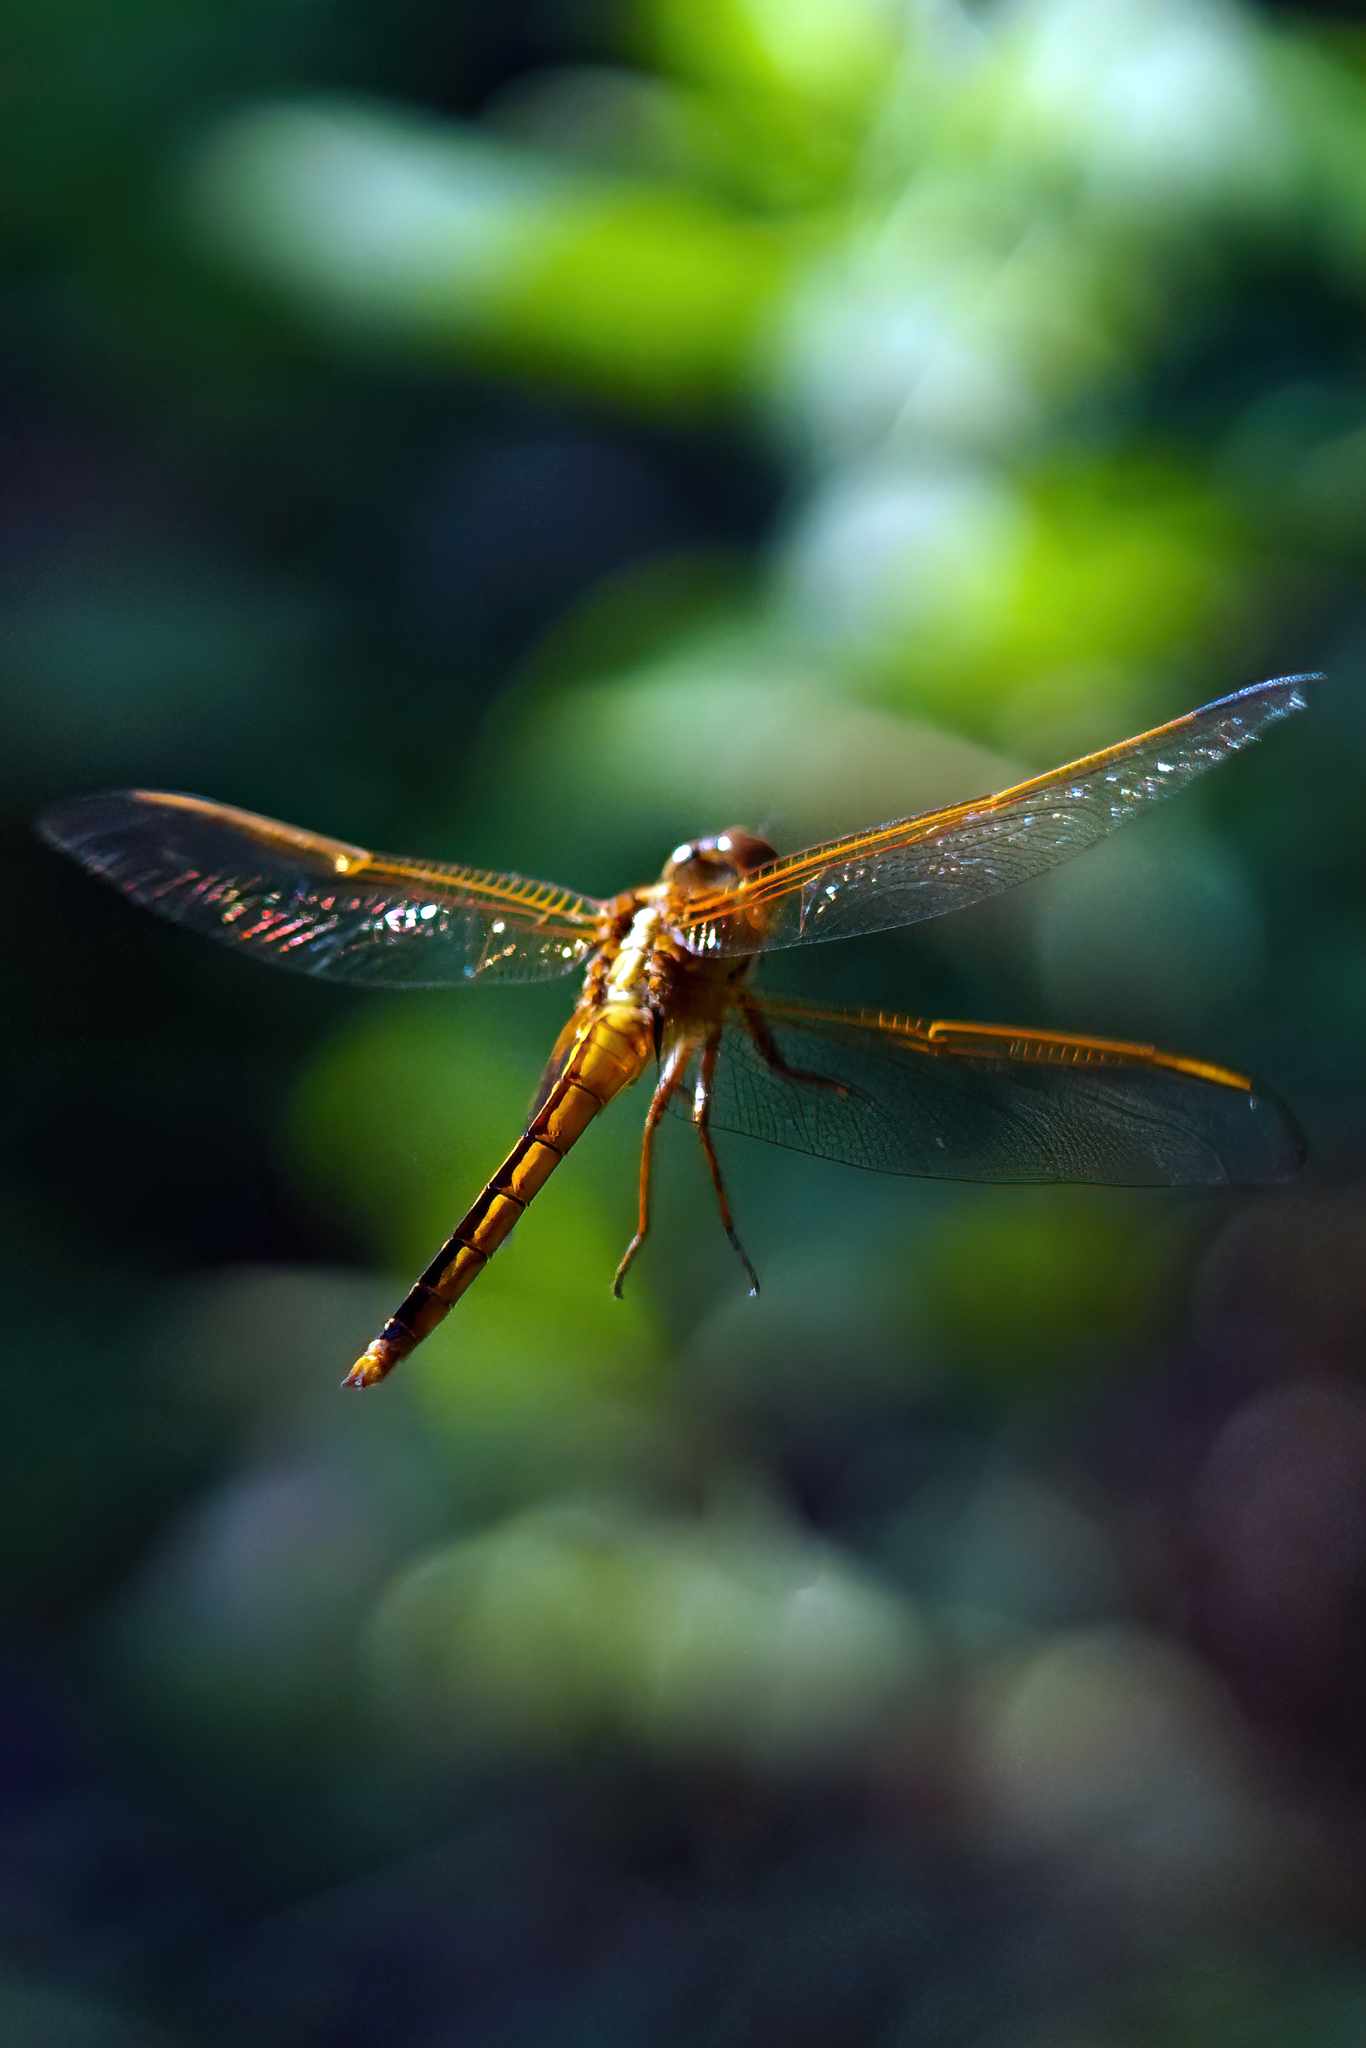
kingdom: Animalia
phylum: Arthropoda
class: Insecta
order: Odonata
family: Libellulidae
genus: Libellula
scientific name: Libellula needhami
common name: Needham's skimmer
